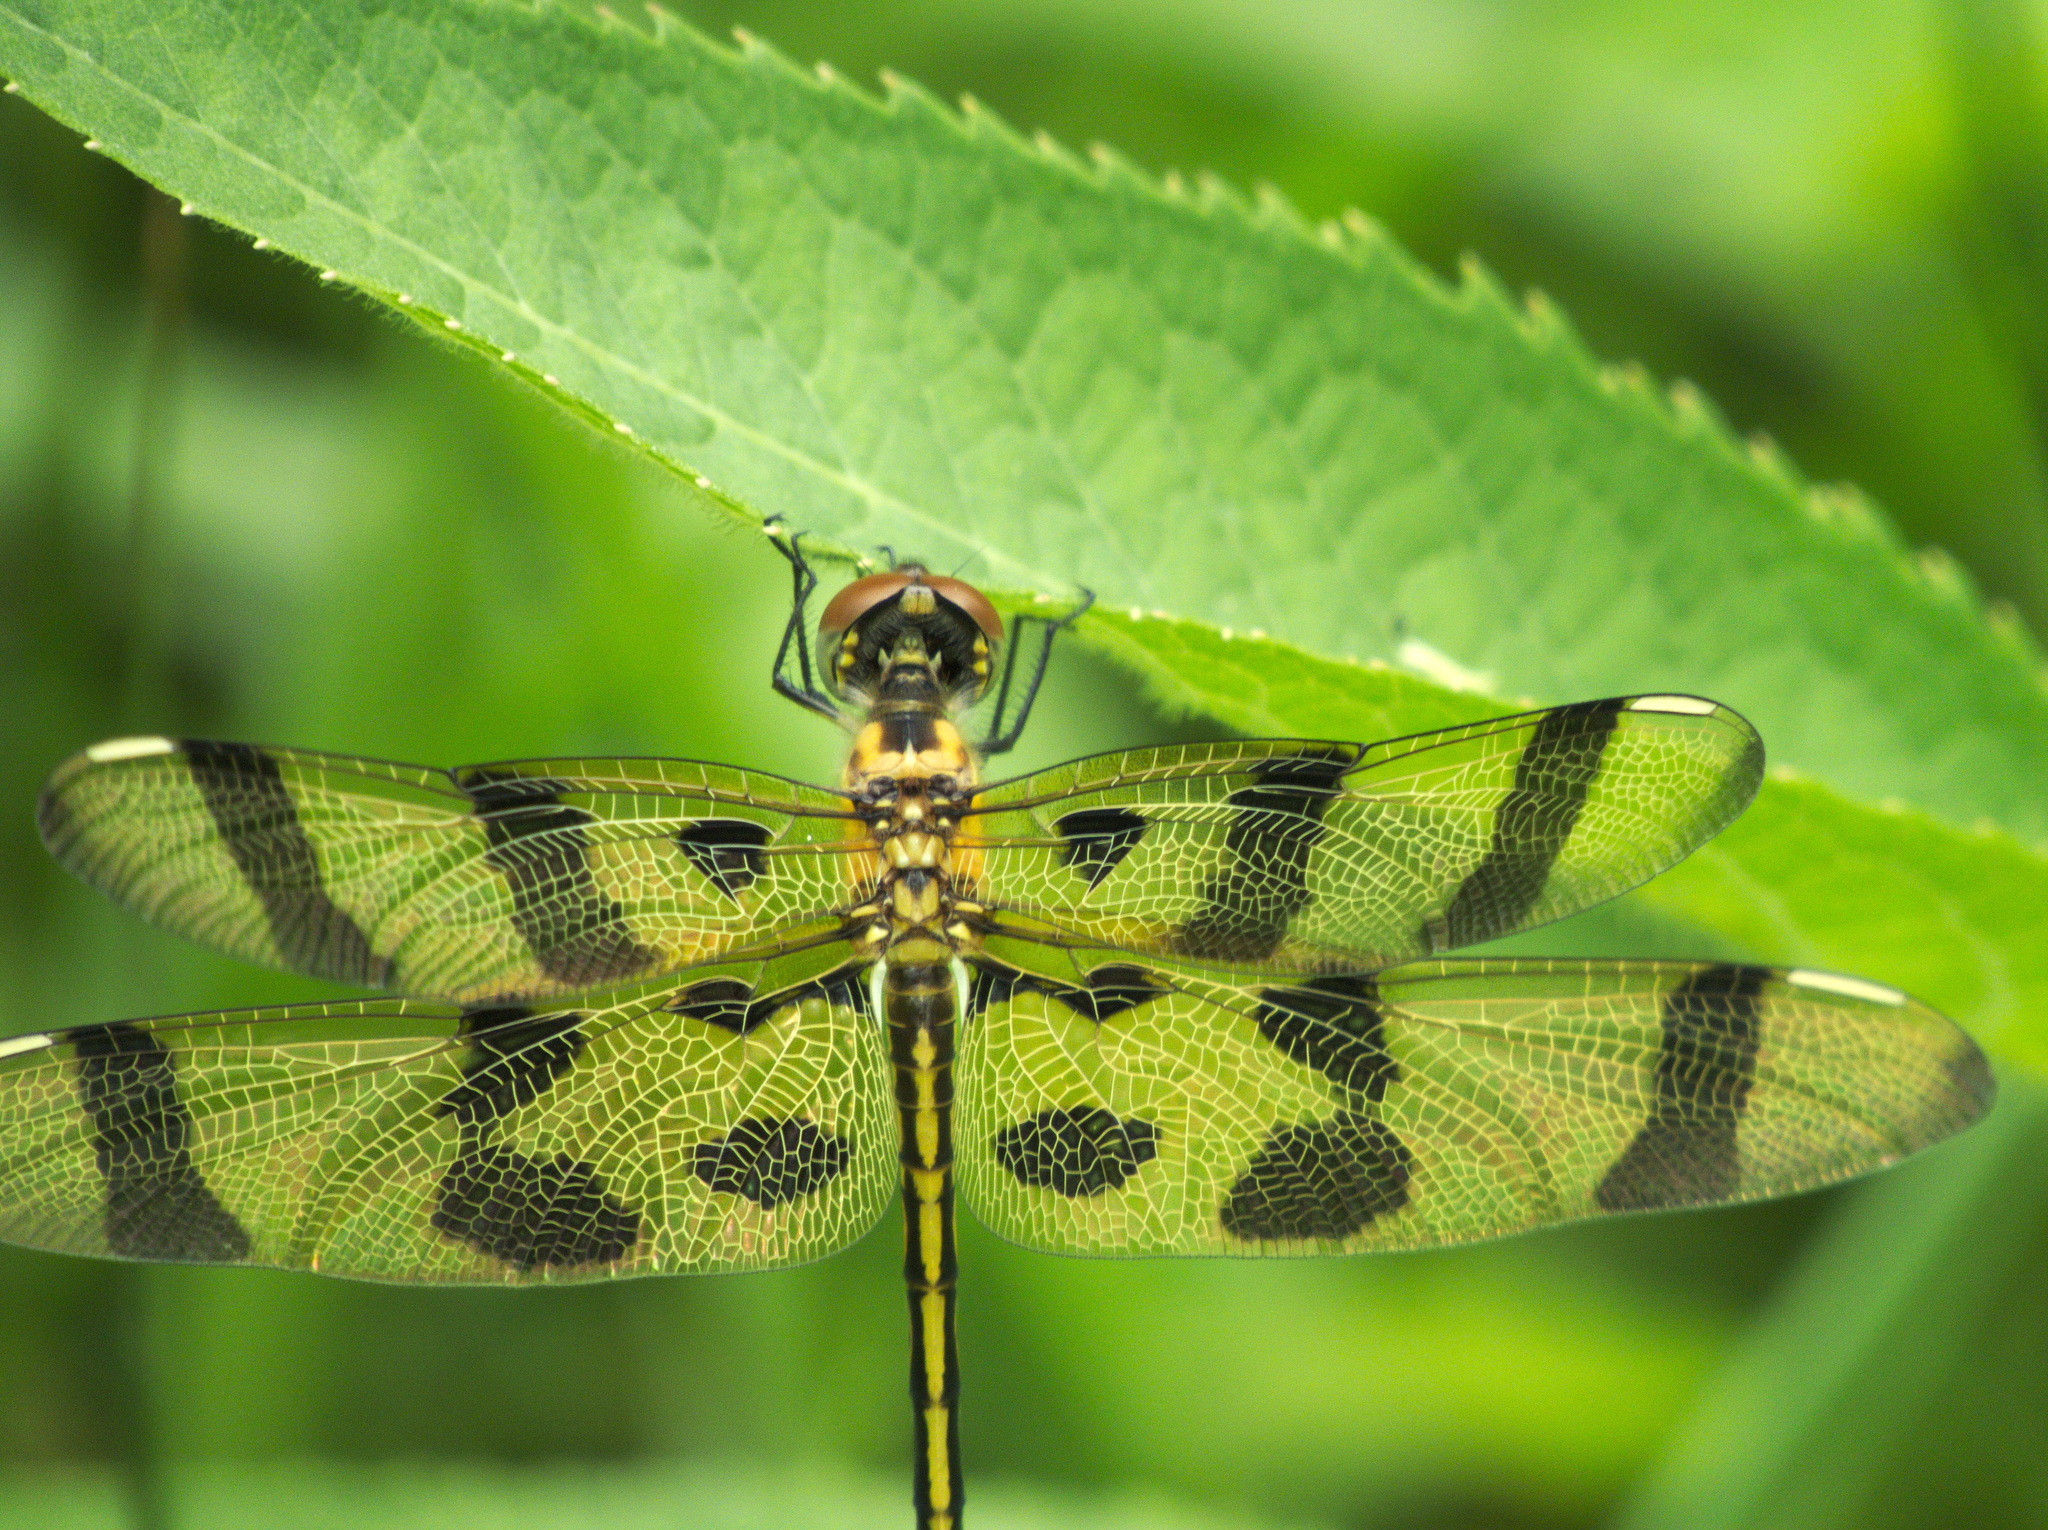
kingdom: Animalia
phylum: Arthropoda
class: Insecta
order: Odonata
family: Libellulidae
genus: Celithemis
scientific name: Celithemis eponina
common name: Halloween pennant
